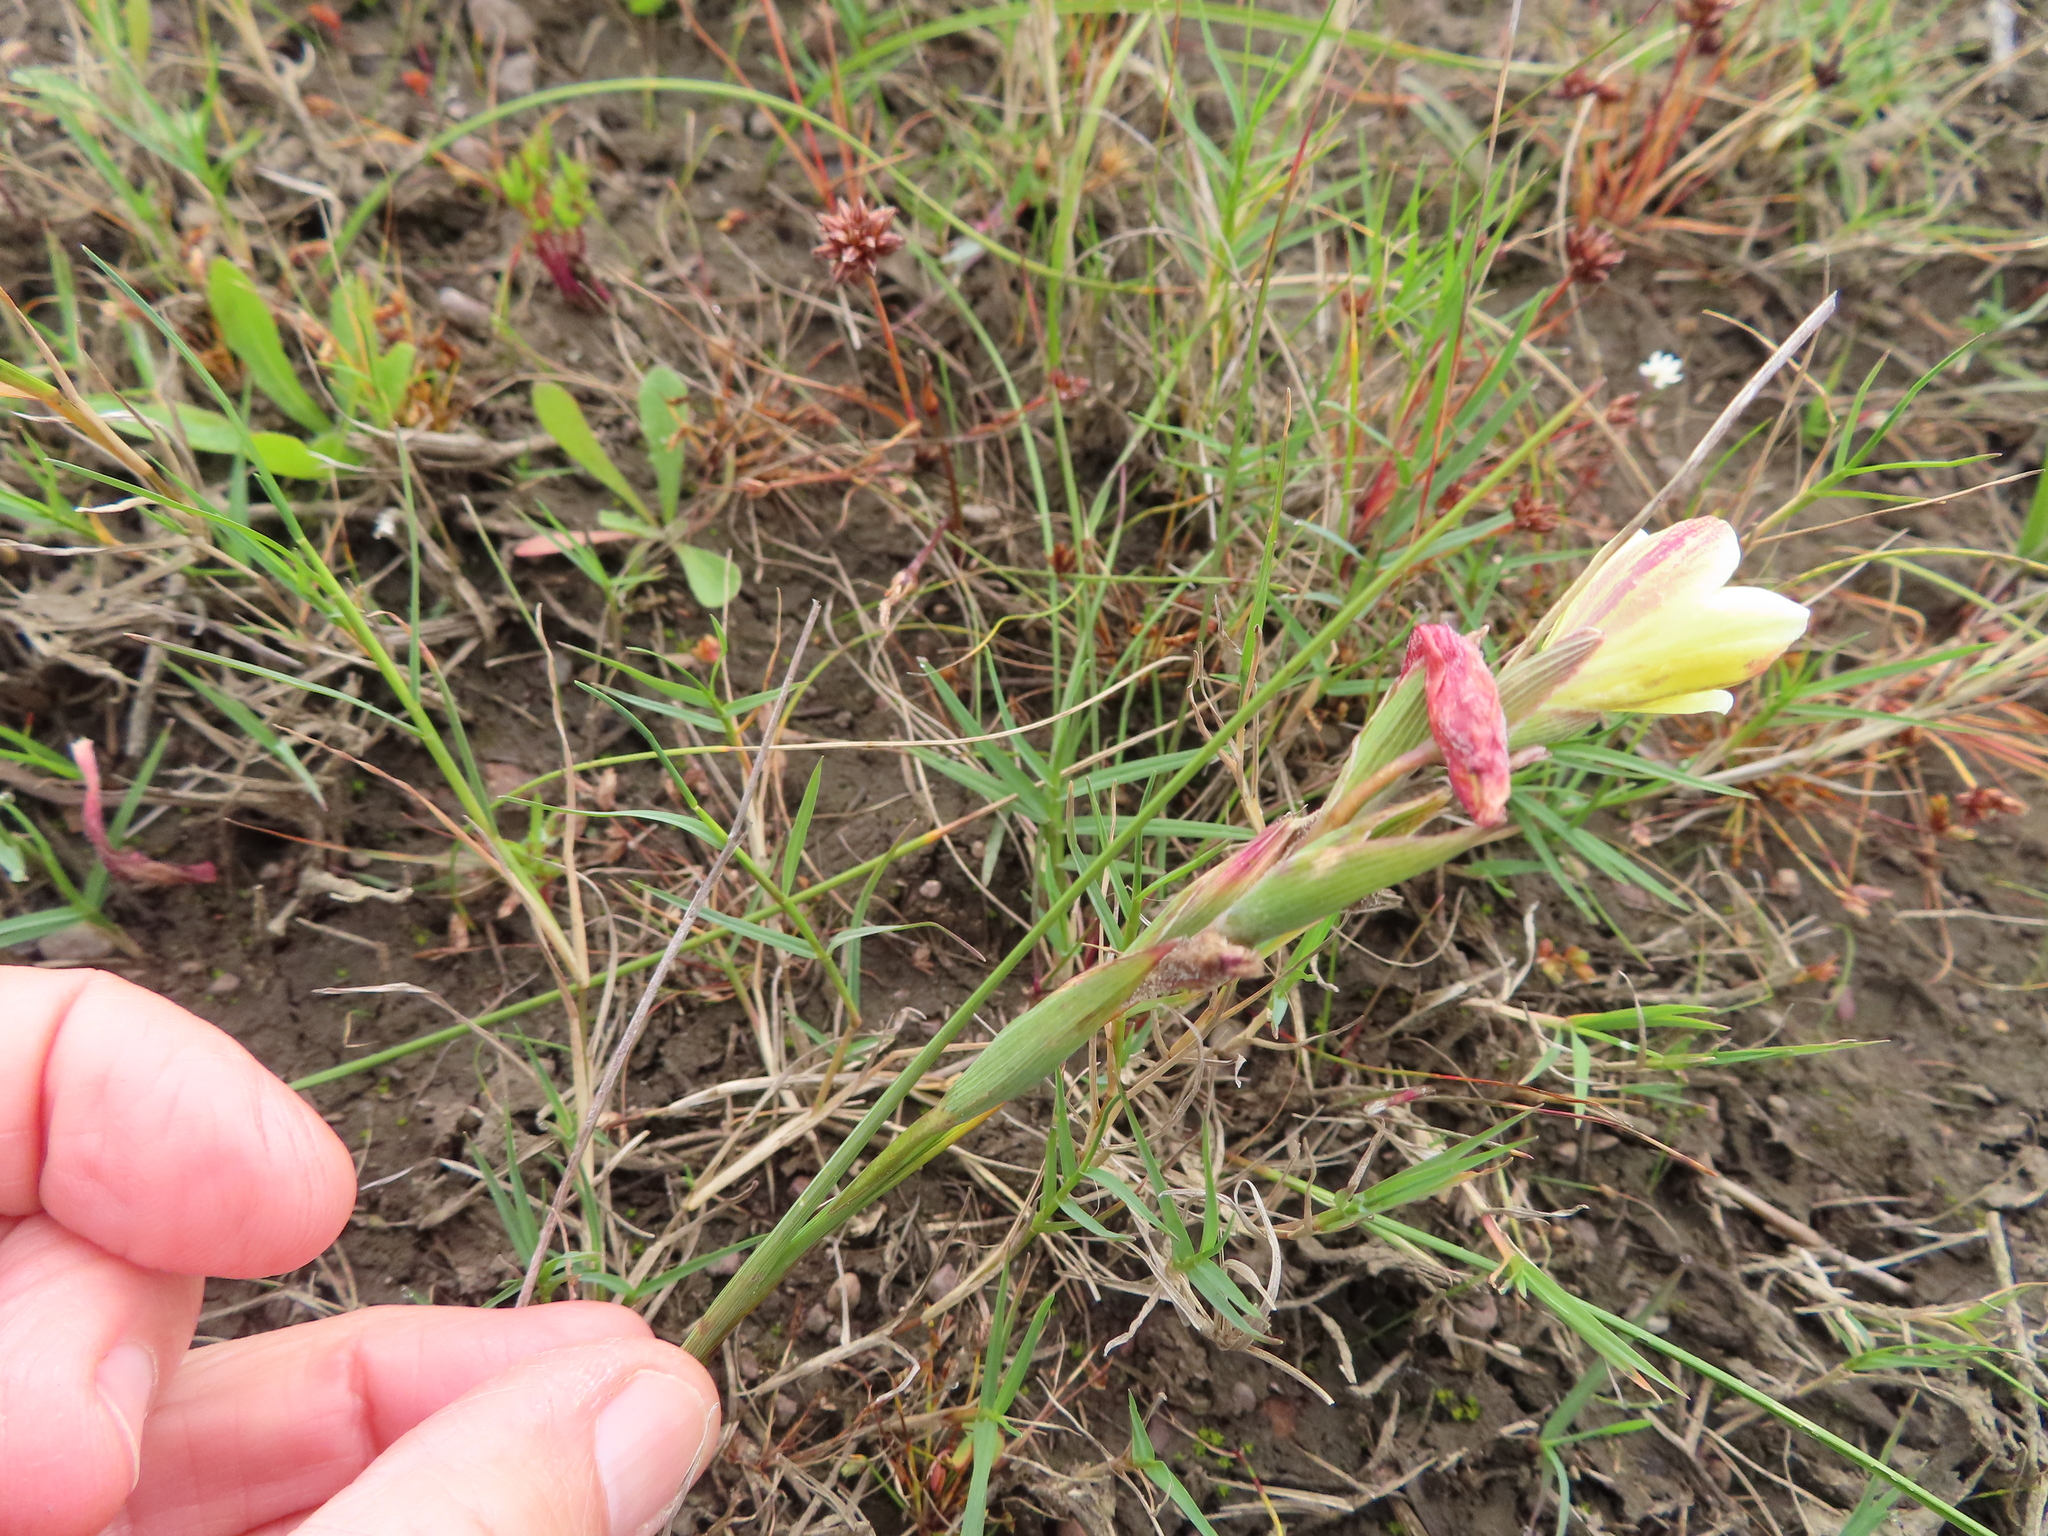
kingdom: Plantae
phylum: Tracheophyta
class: Liliopsida
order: Asparagales
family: Iridaceae
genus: Gladiolus
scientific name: Gladiolus trichonemifolius
